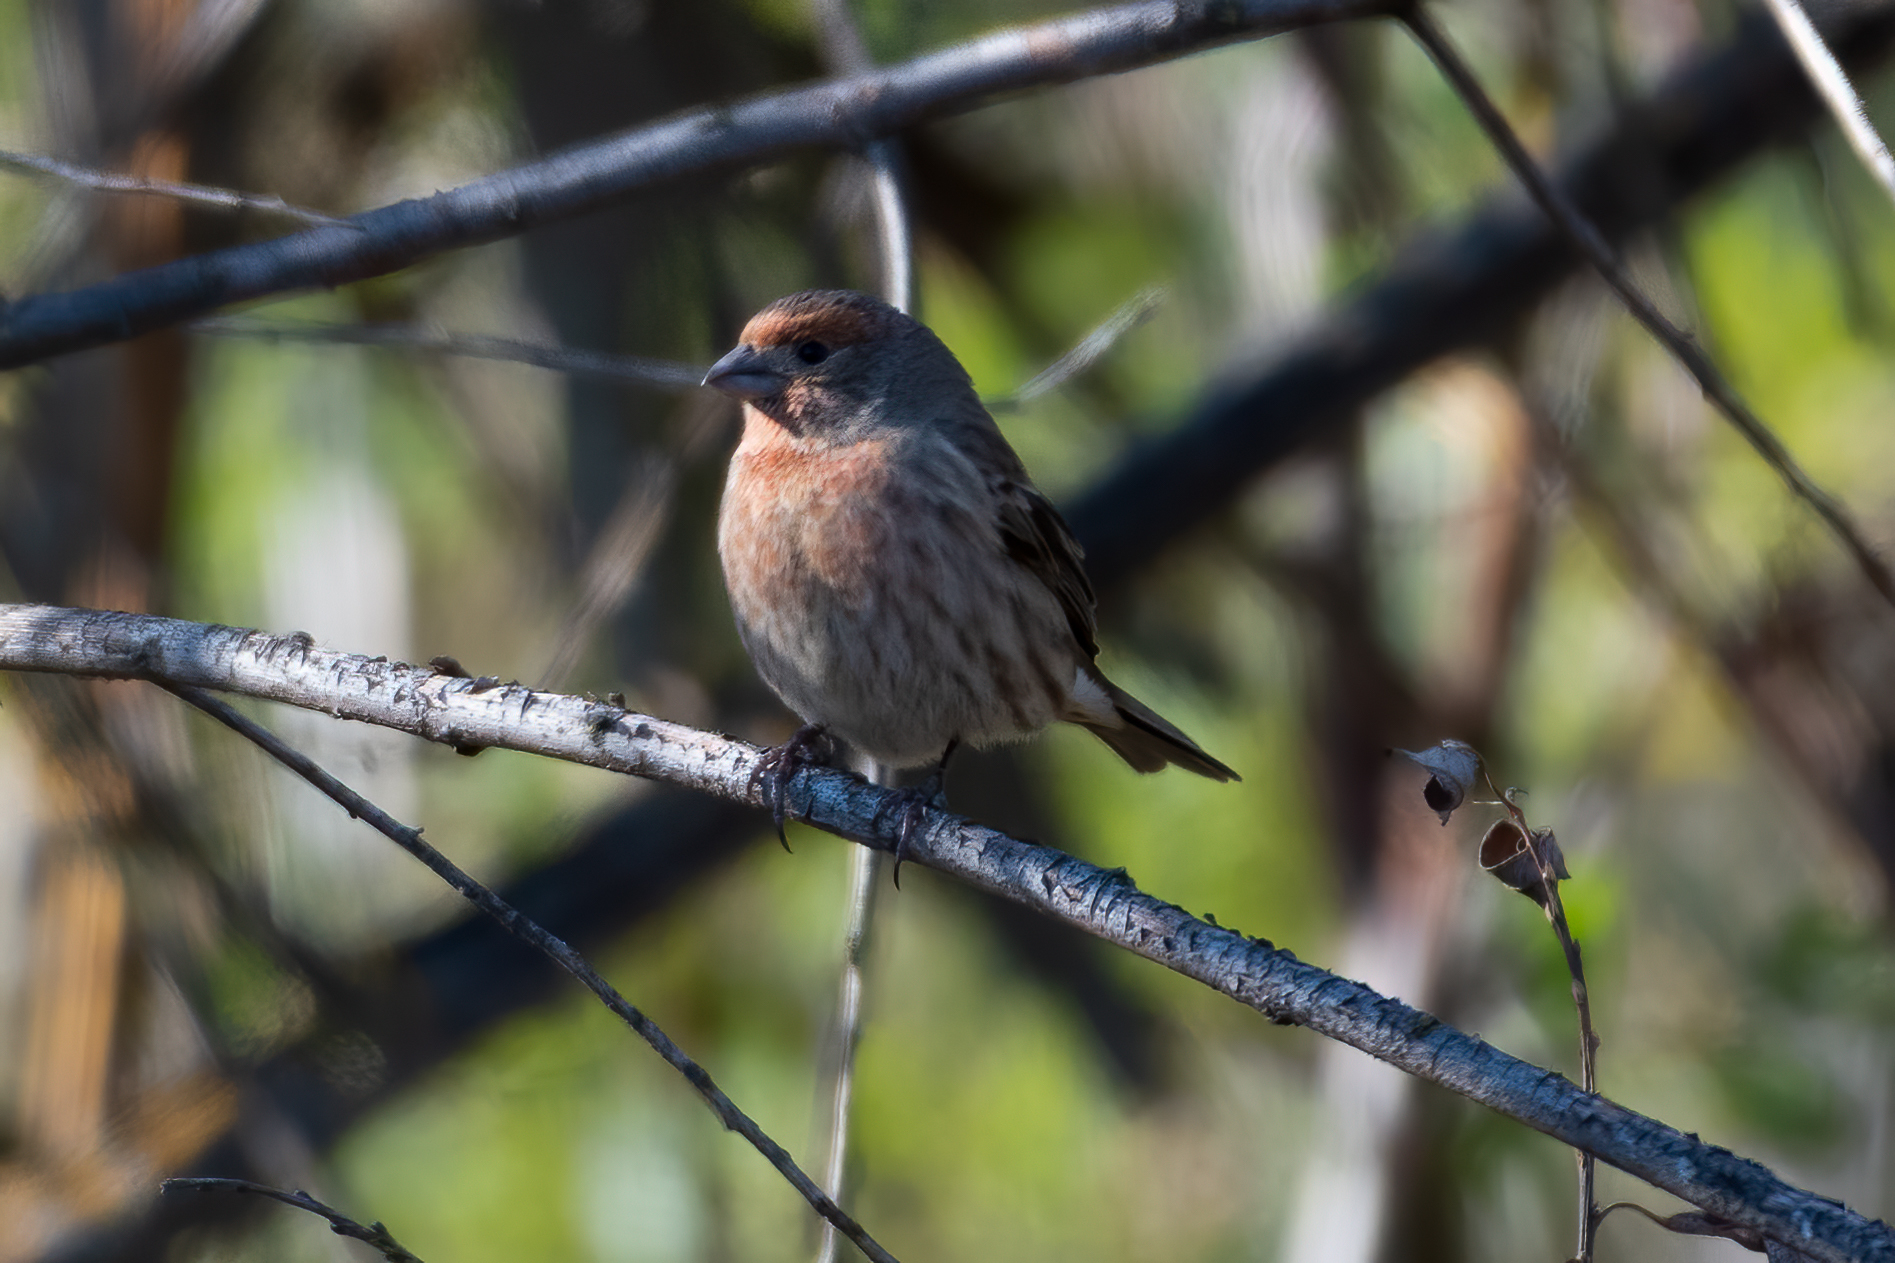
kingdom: Animalia
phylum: Chordata
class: Aves
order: Passeriformes
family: Fringillidae
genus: Haemorhous
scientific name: Haemorhous mexicanus
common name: House finch
